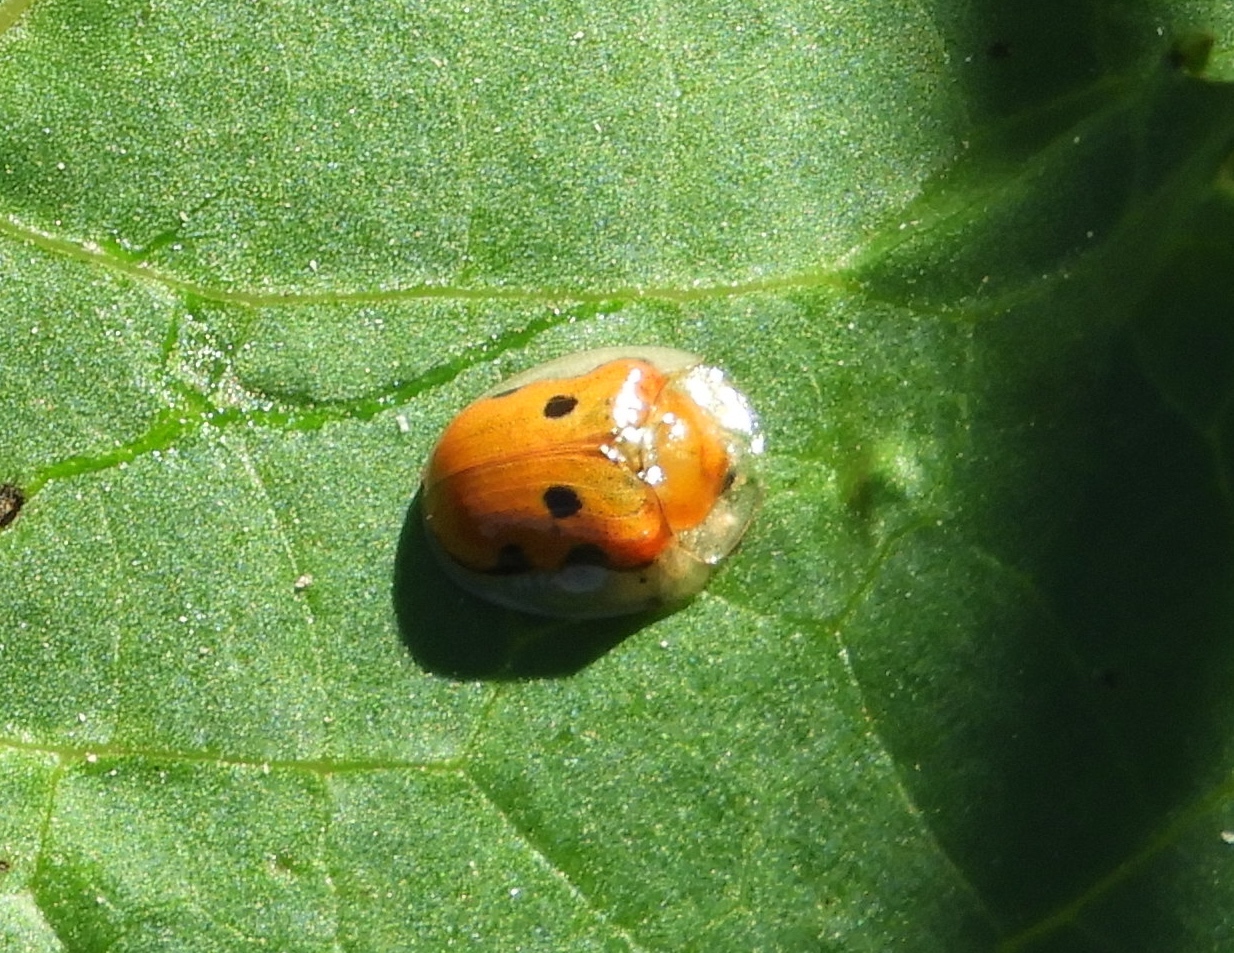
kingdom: Animalia
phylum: Arthropoda
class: Insecta
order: Coleoptera
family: Chrysomelidae
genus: Charidotella
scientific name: Charidotella sexpunctata
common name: Golden tortoise beetle
